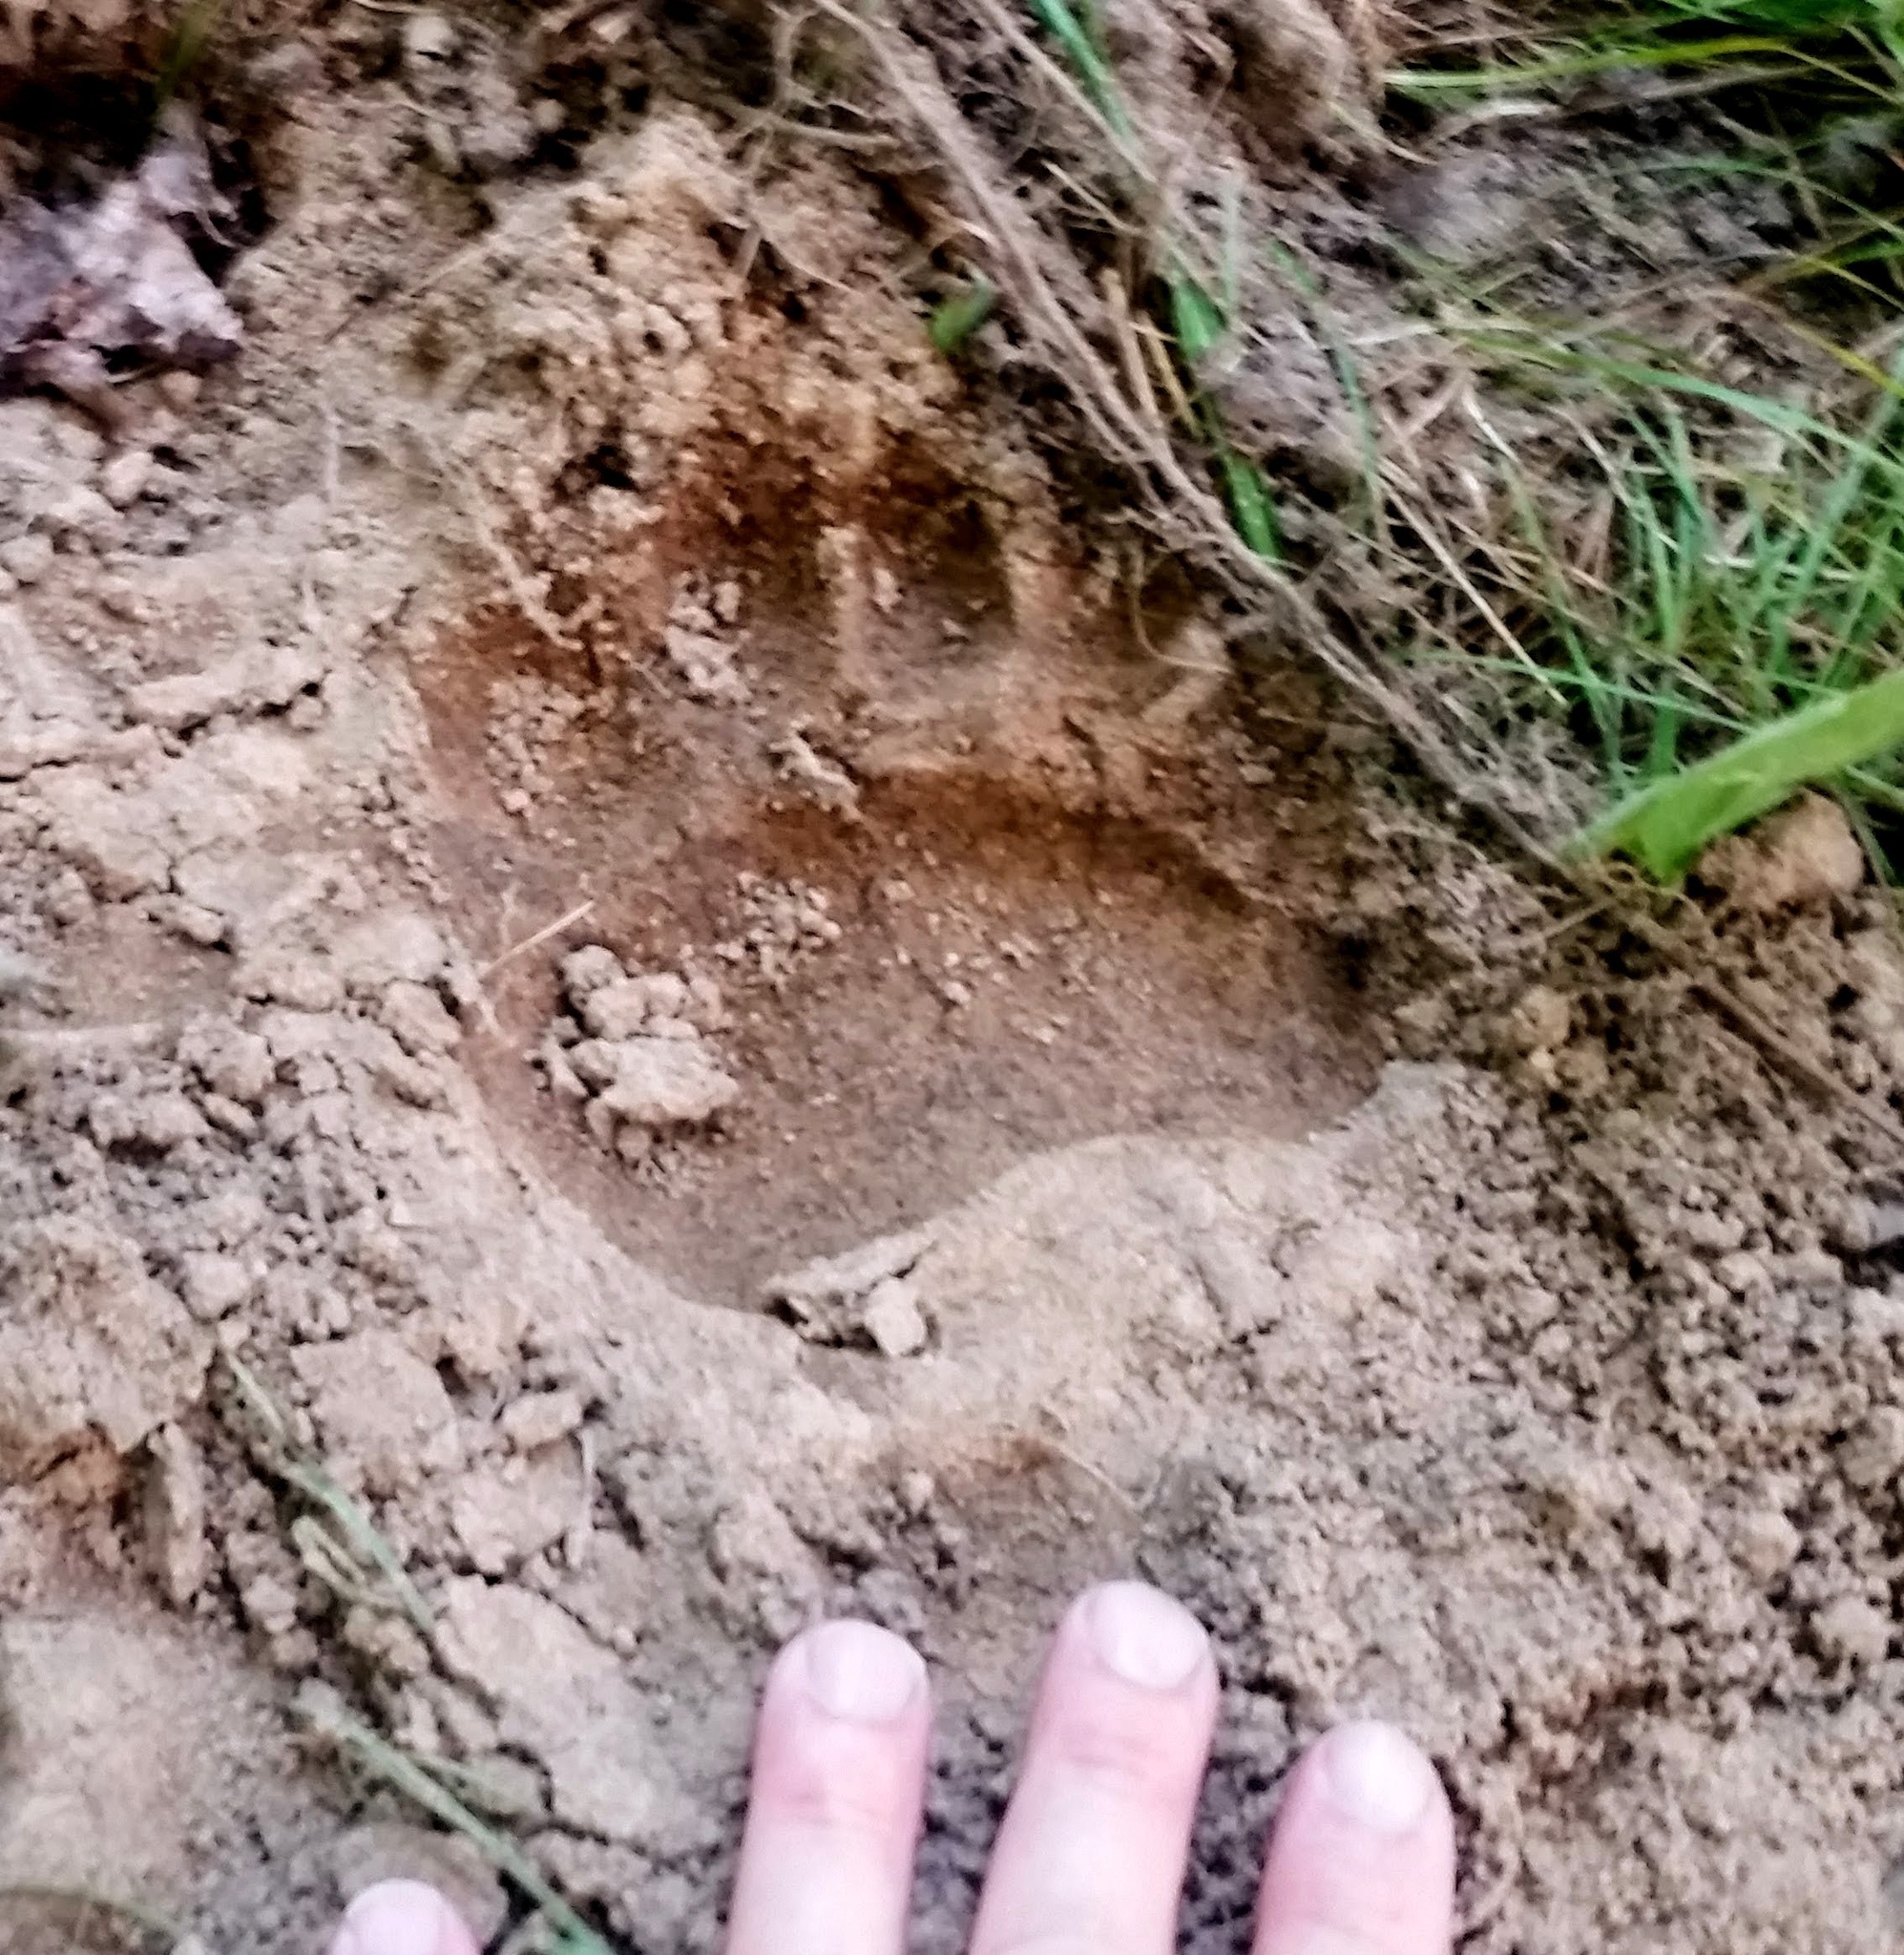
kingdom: Animalia
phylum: Chordata
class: Mammalia
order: Carnivora
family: Ursidae
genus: Ursus
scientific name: Ursus americanus
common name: American black bear
